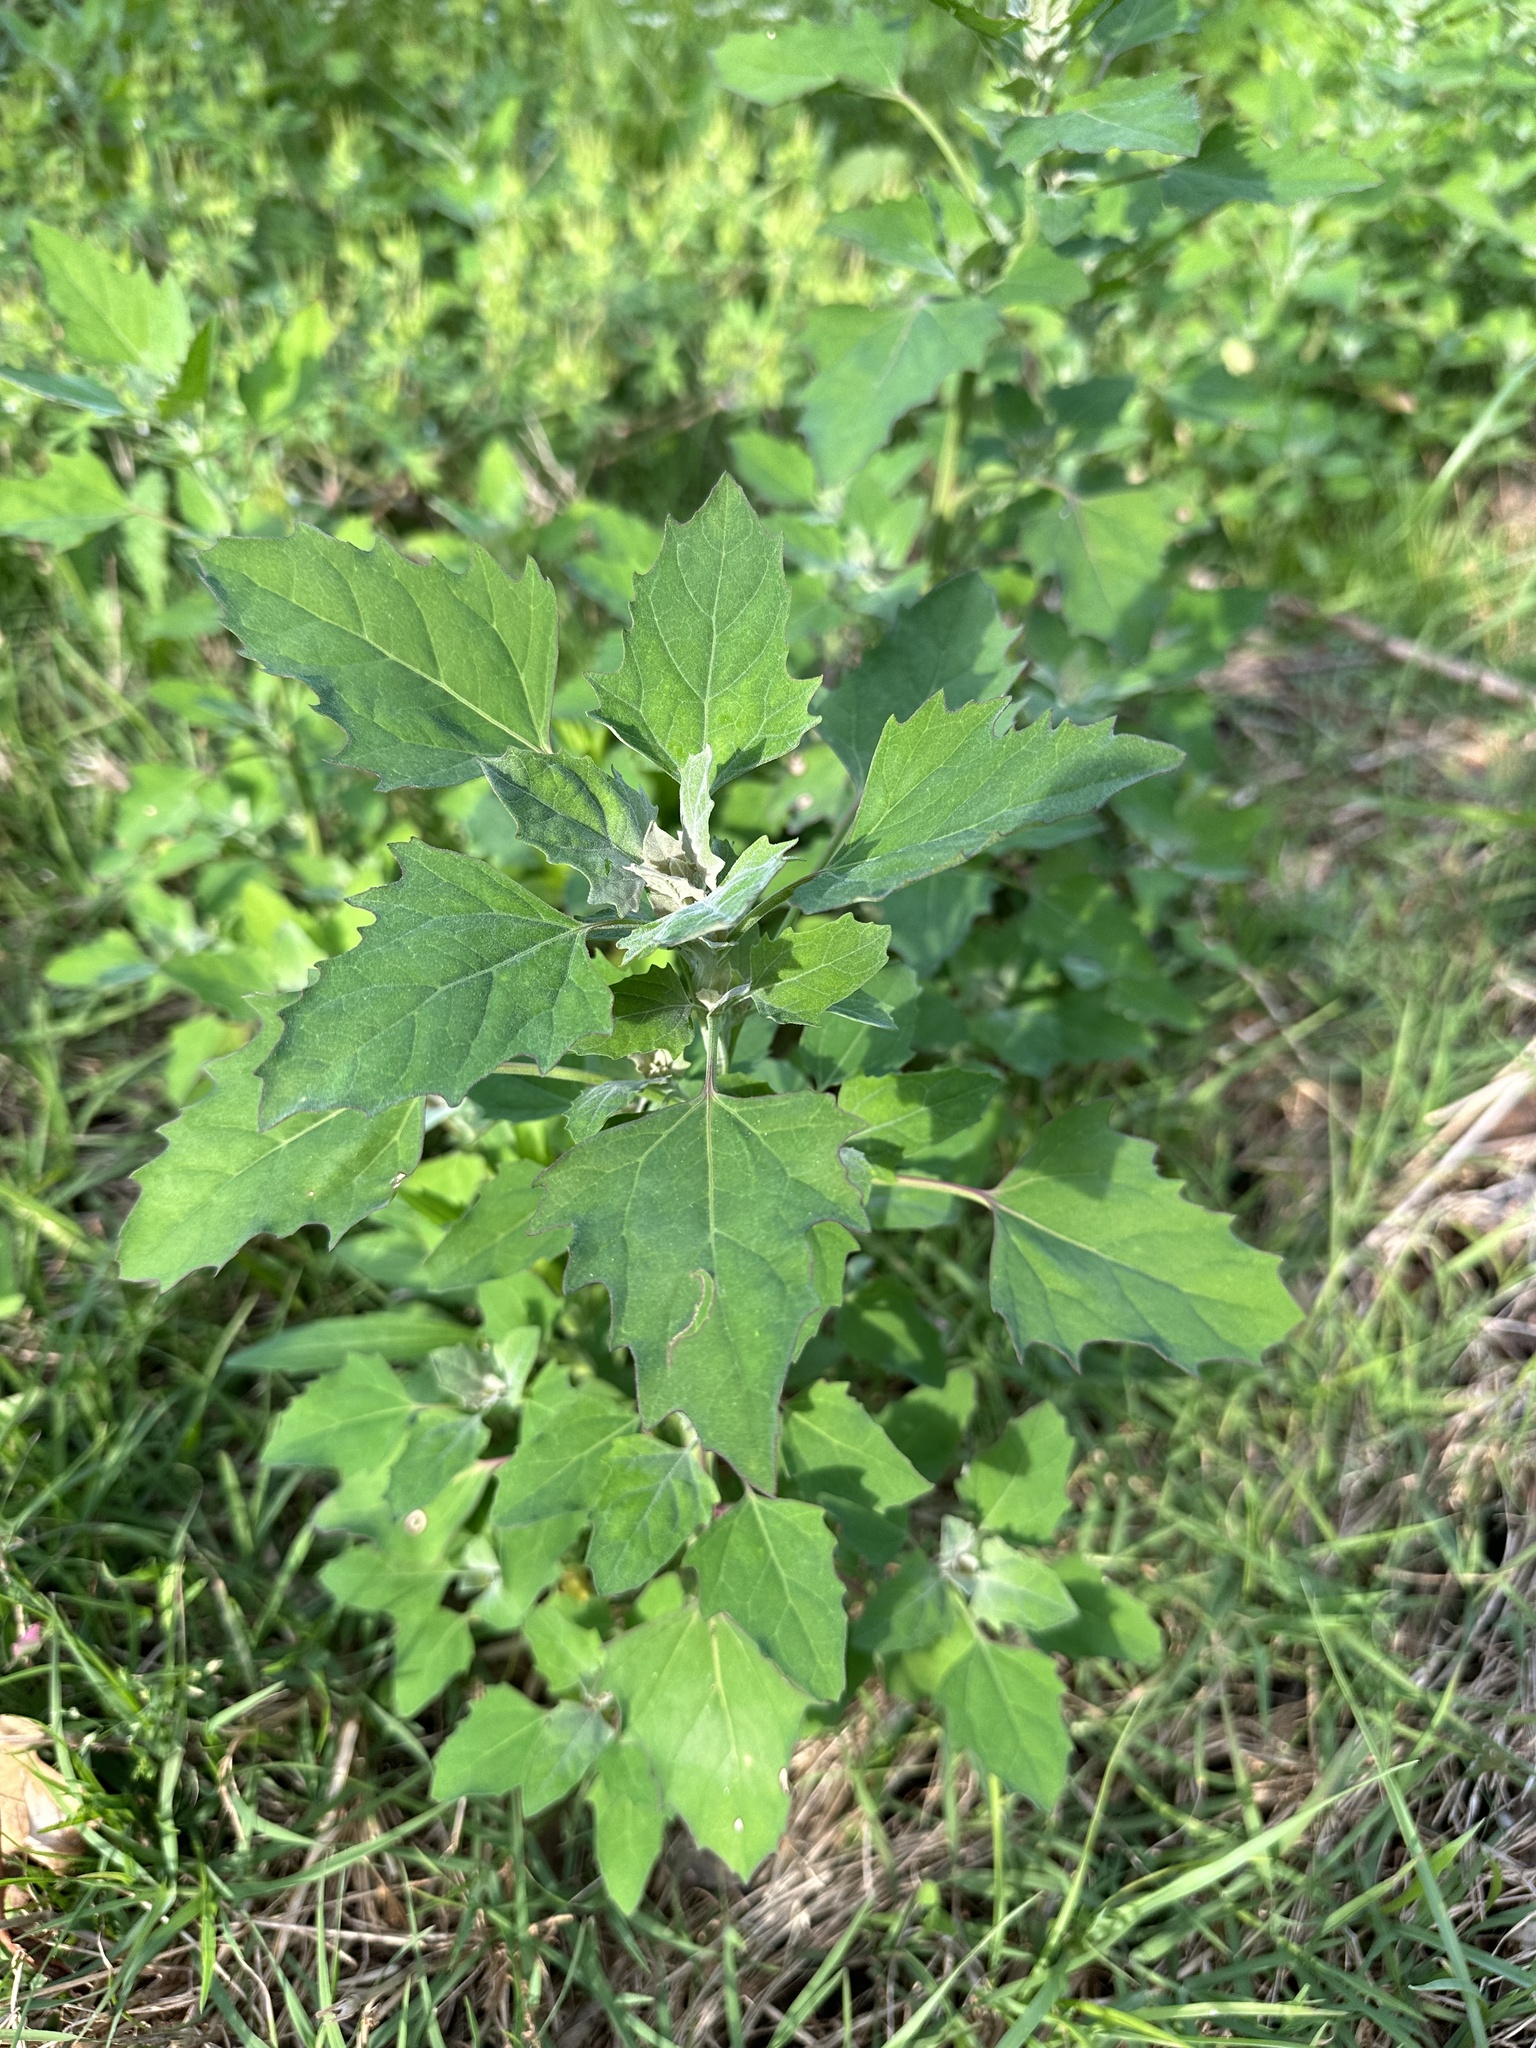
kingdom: Plantae
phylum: Tracheophyta
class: Magnoliopsida
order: Caryophyllales
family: Amaranthaceae
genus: Chenopodium
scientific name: Chenopodium album
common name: Fat-hen
